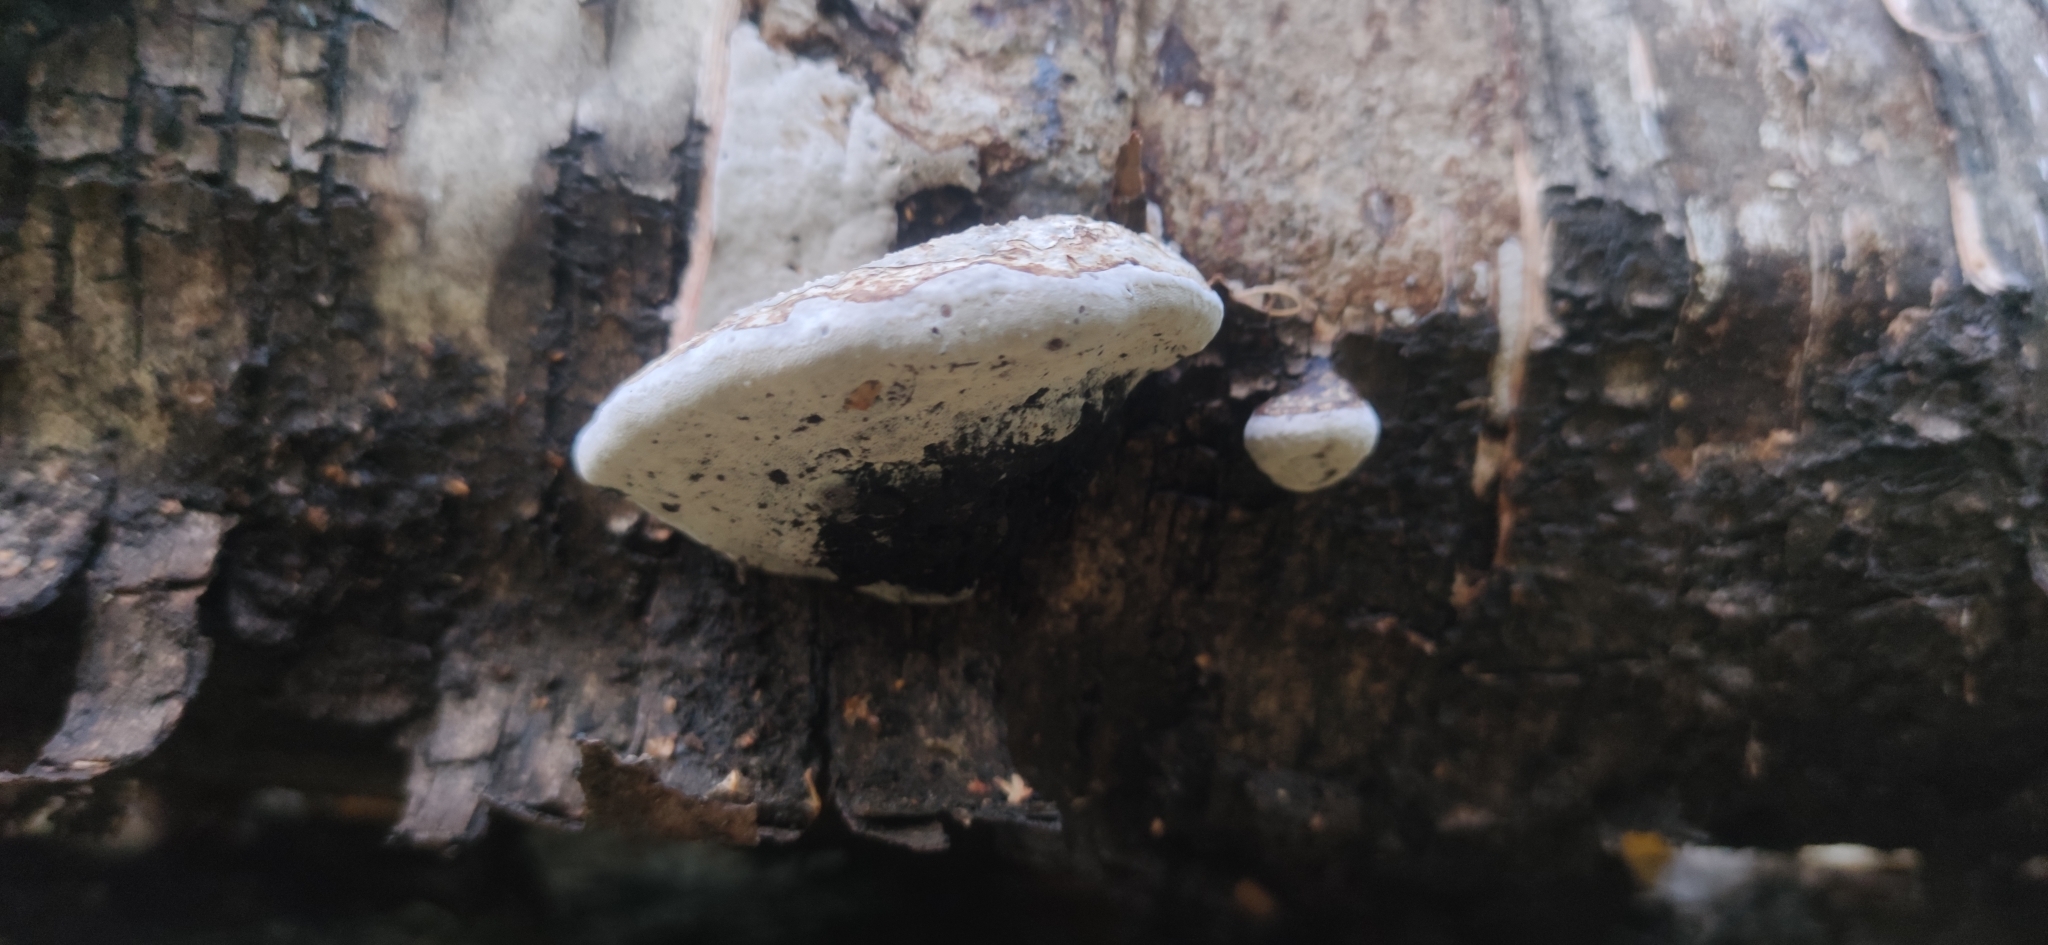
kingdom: Fungi
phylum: Basidiomycota
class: Agaricomycetes
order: Polyporales
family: Polyporaceae
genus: Fomes
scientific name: Fomes fomentarius
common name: Hoof fungus
